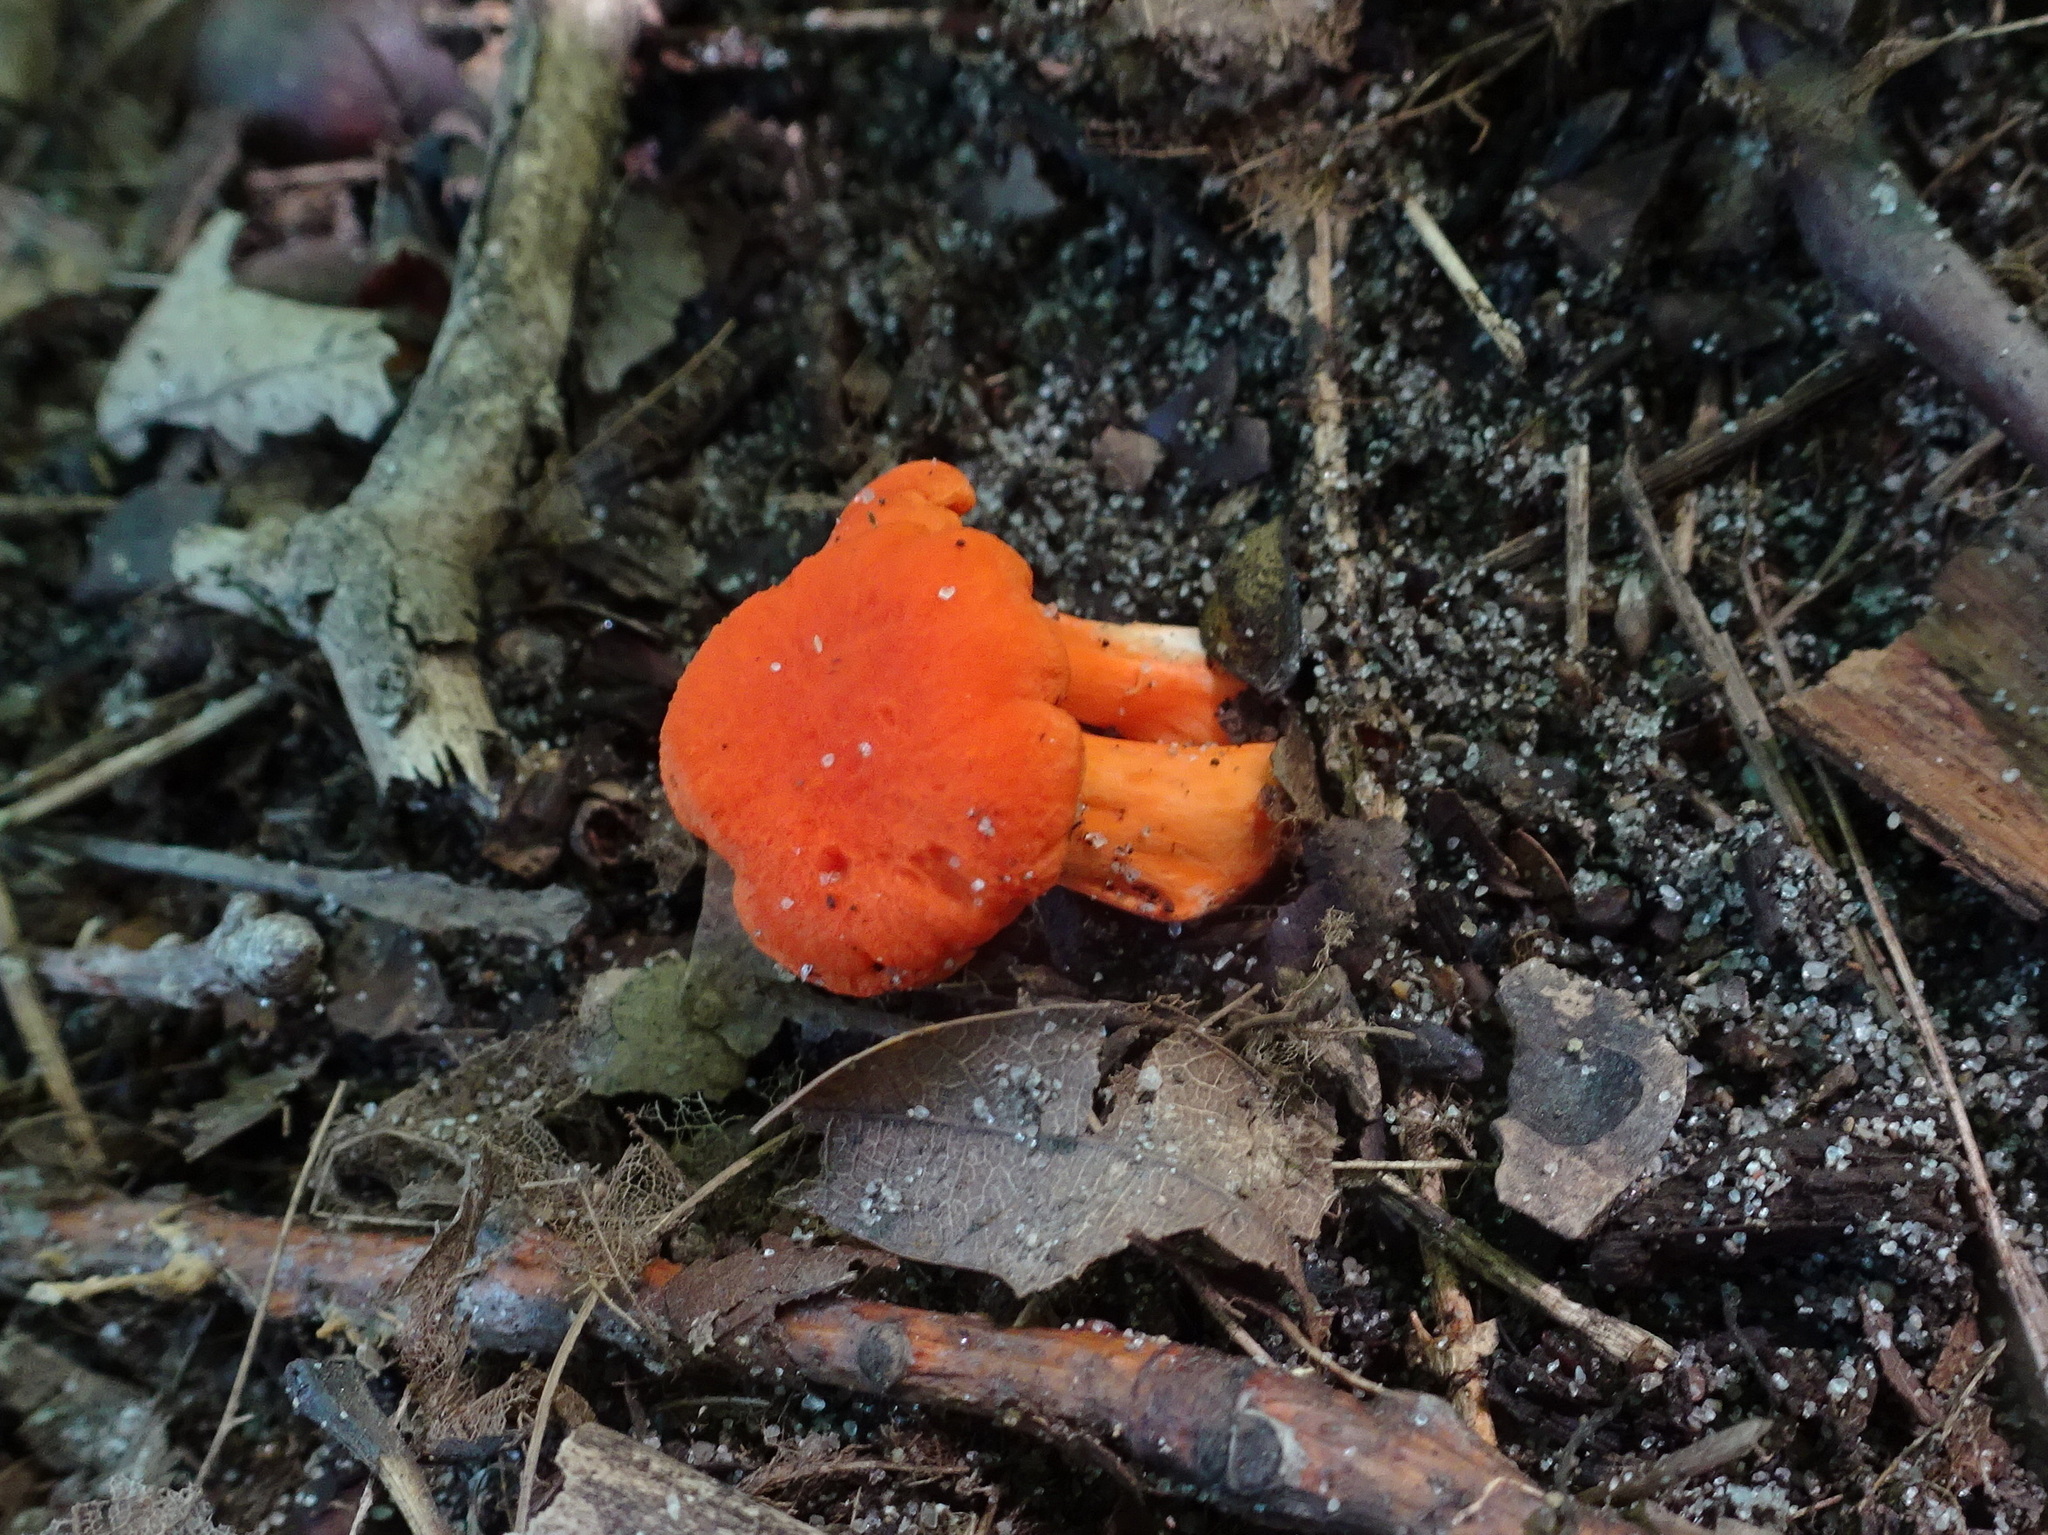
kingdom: Fungi
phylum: Basidiomycota
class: Agaricomycetes
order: Cantharellales
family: Hydnaceae
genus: Cantharellus
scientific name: Cantharellus cinnabarinus
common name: Cinnabar chanterelle
